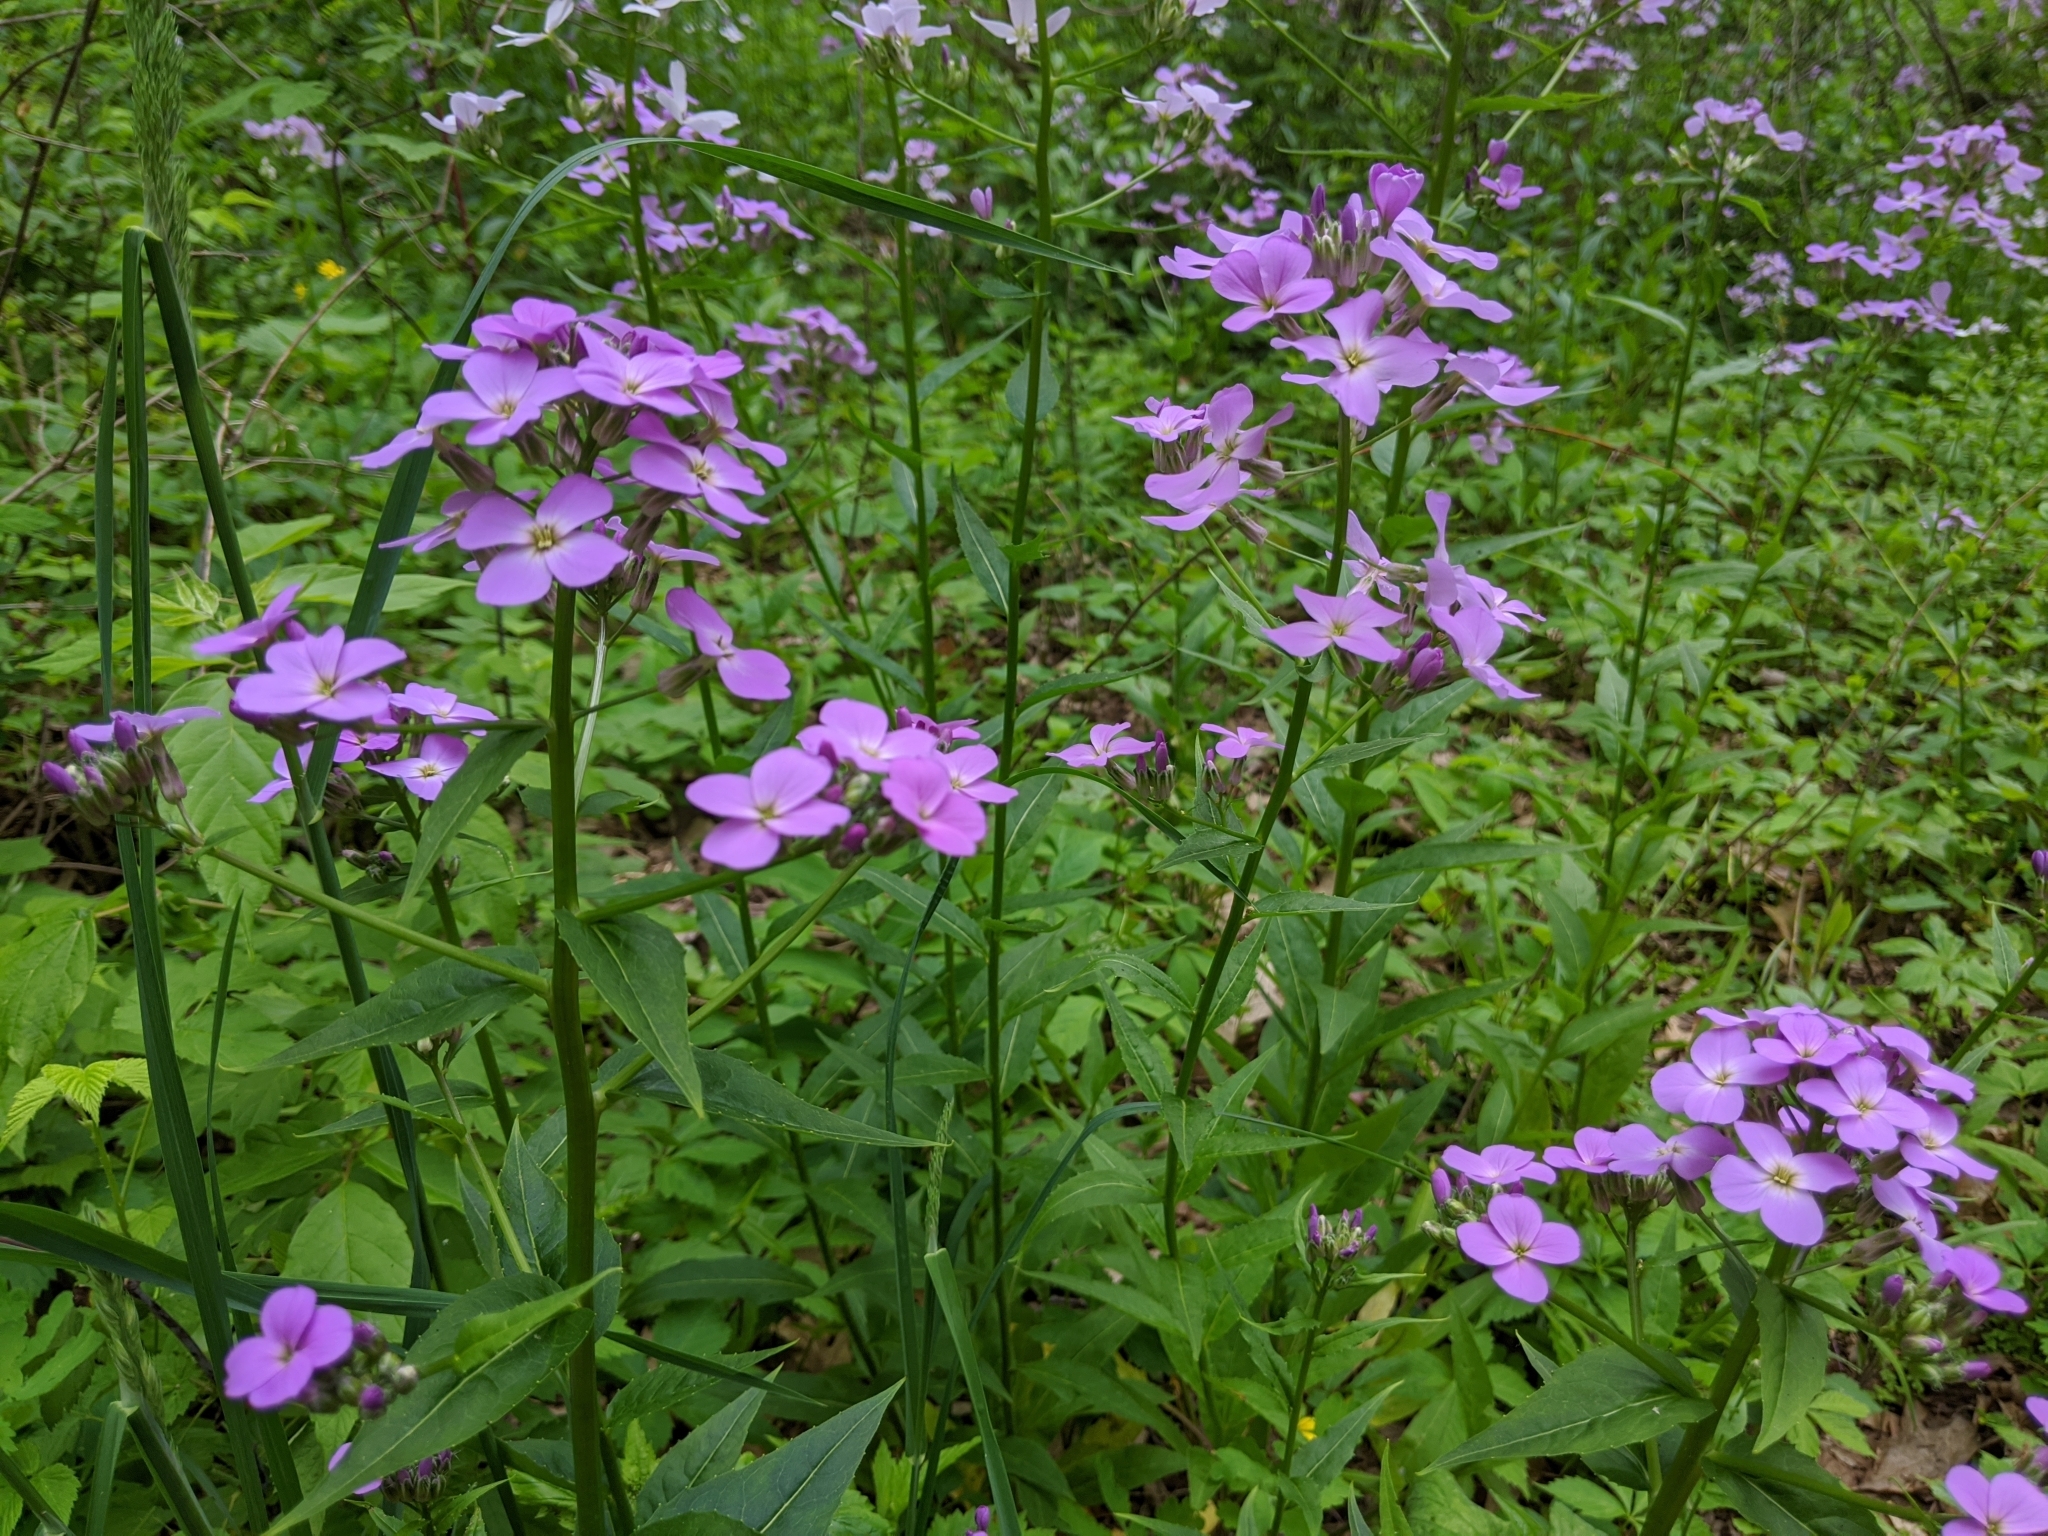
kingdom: Plantae
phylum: Tracheophyta
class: Magnoliopsida
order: Brassicales
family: Brassicaceae
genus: Hesperis
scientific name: Hesperis matronalis
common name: Dame's-violet
